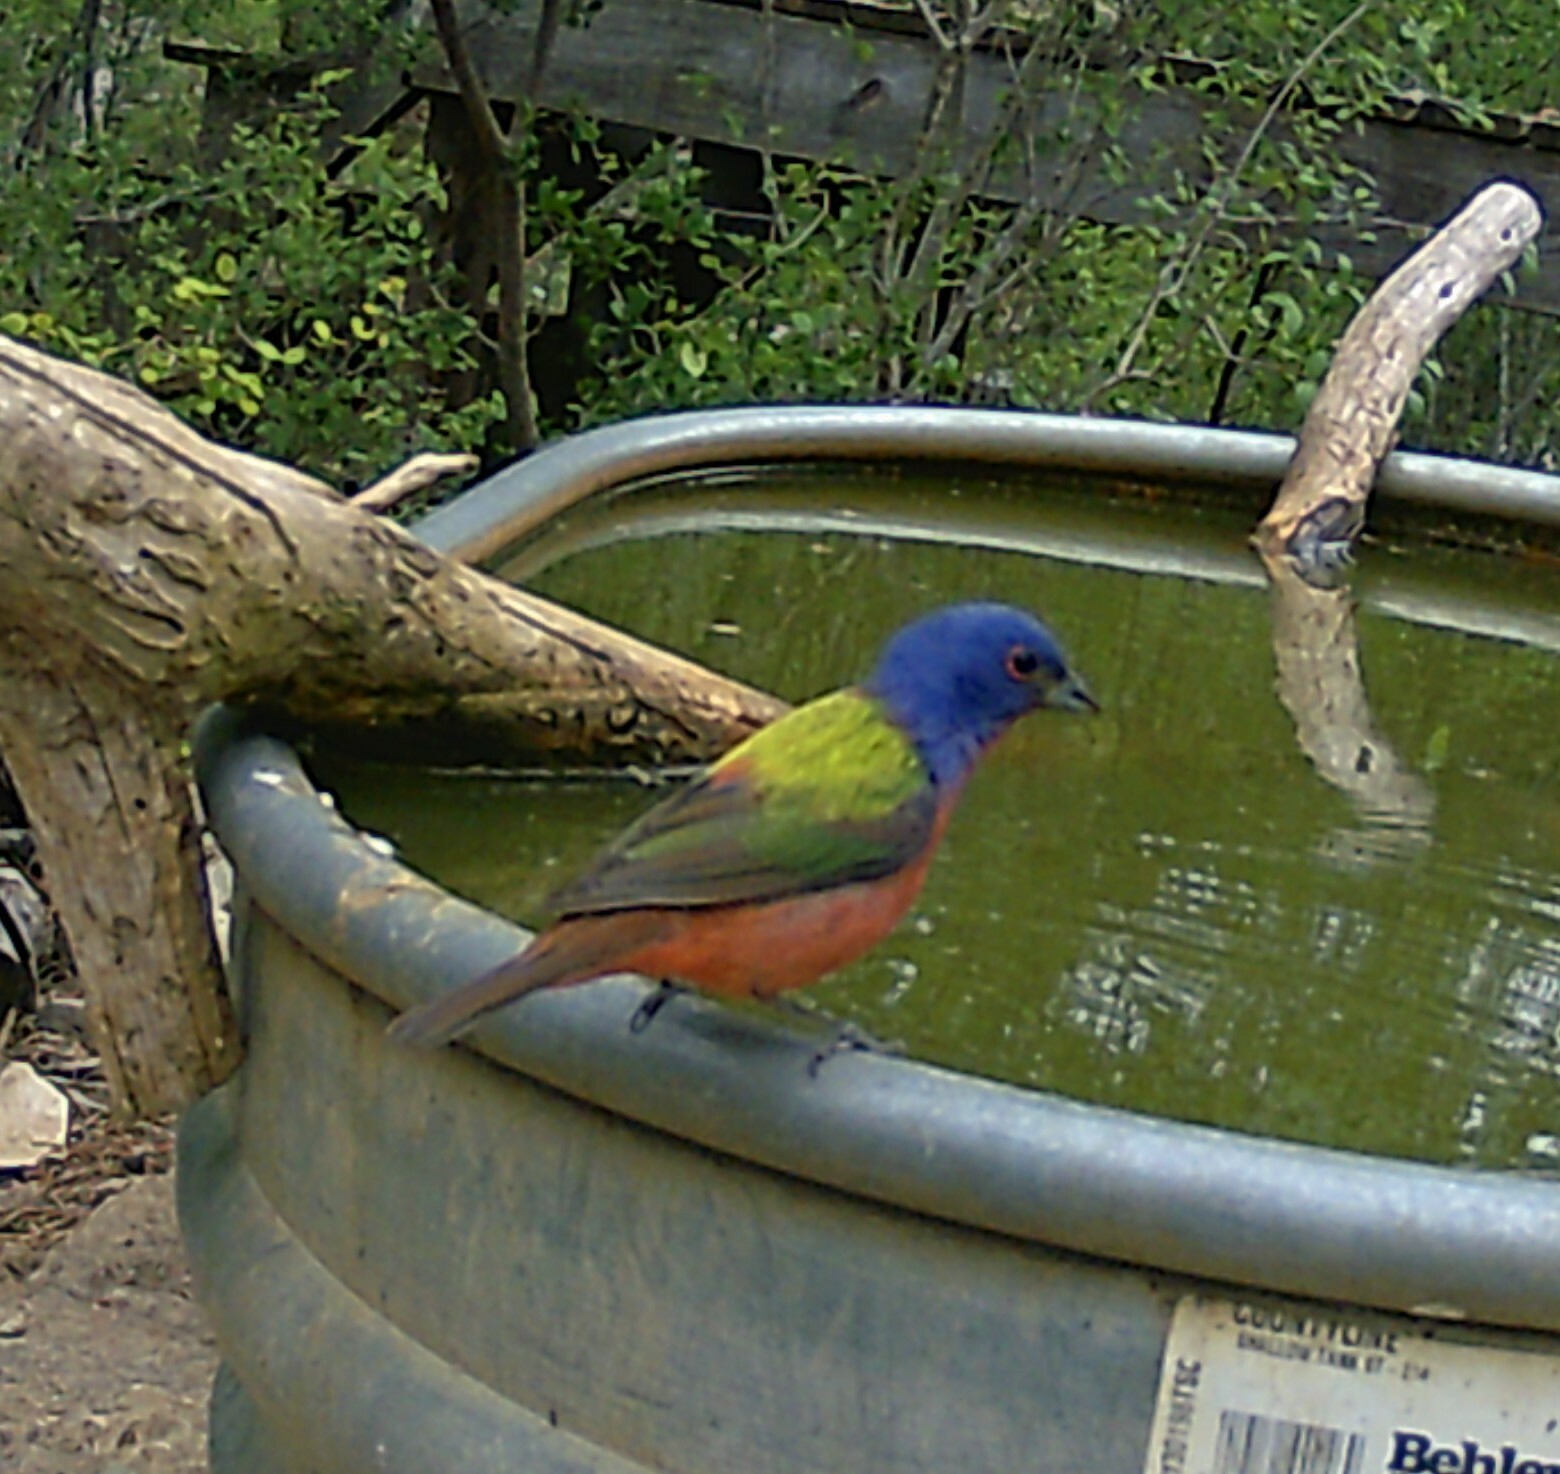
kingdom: Animalia
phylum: Chordata
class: Aves
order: Passeriformes
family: Cardinalidae
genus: Passerina
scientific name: Passerina ciris
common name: Painted bunting
